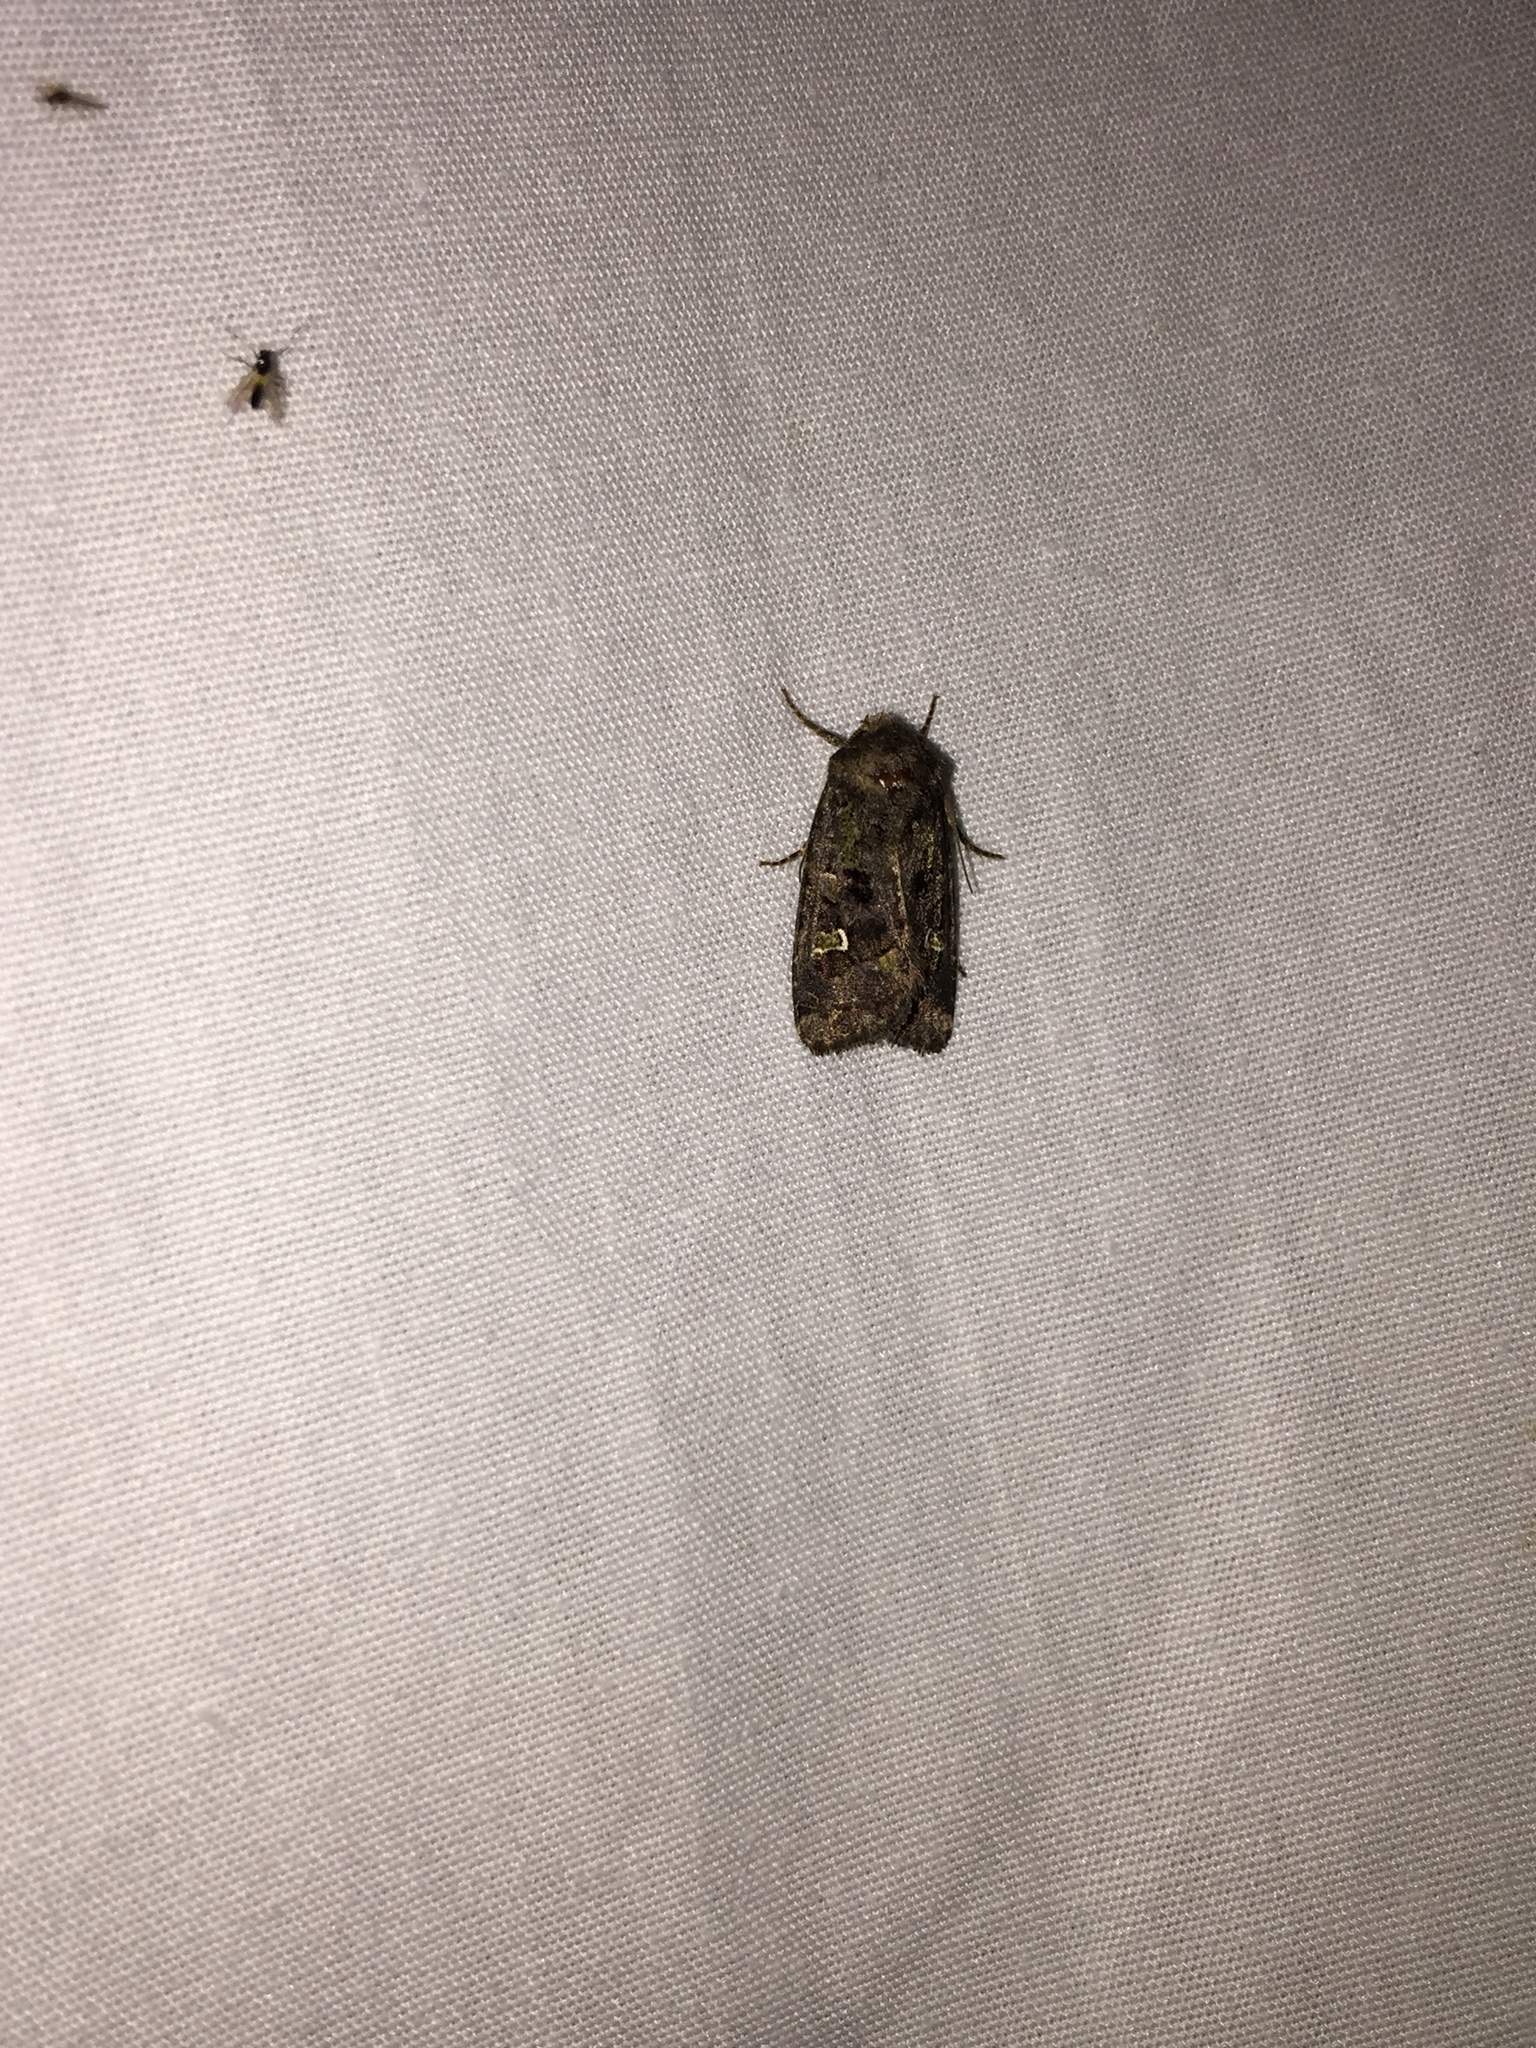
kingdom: Animalia
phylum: Arthropoda
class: Insecta
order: Lepidoptera
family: Noctuidae
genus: Lacinipolia
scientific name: Lacinipolia renigera
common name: Kidney-spotted minor
